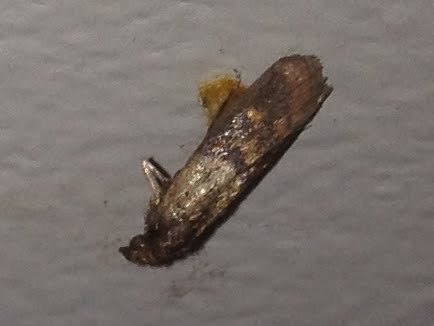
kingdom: Animalia
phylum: Arthropoda
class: Insecta
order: Lepidoptera
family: Pyralidae
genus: Plodia
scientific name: Plodia interpunctella
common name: Indian meal moth
